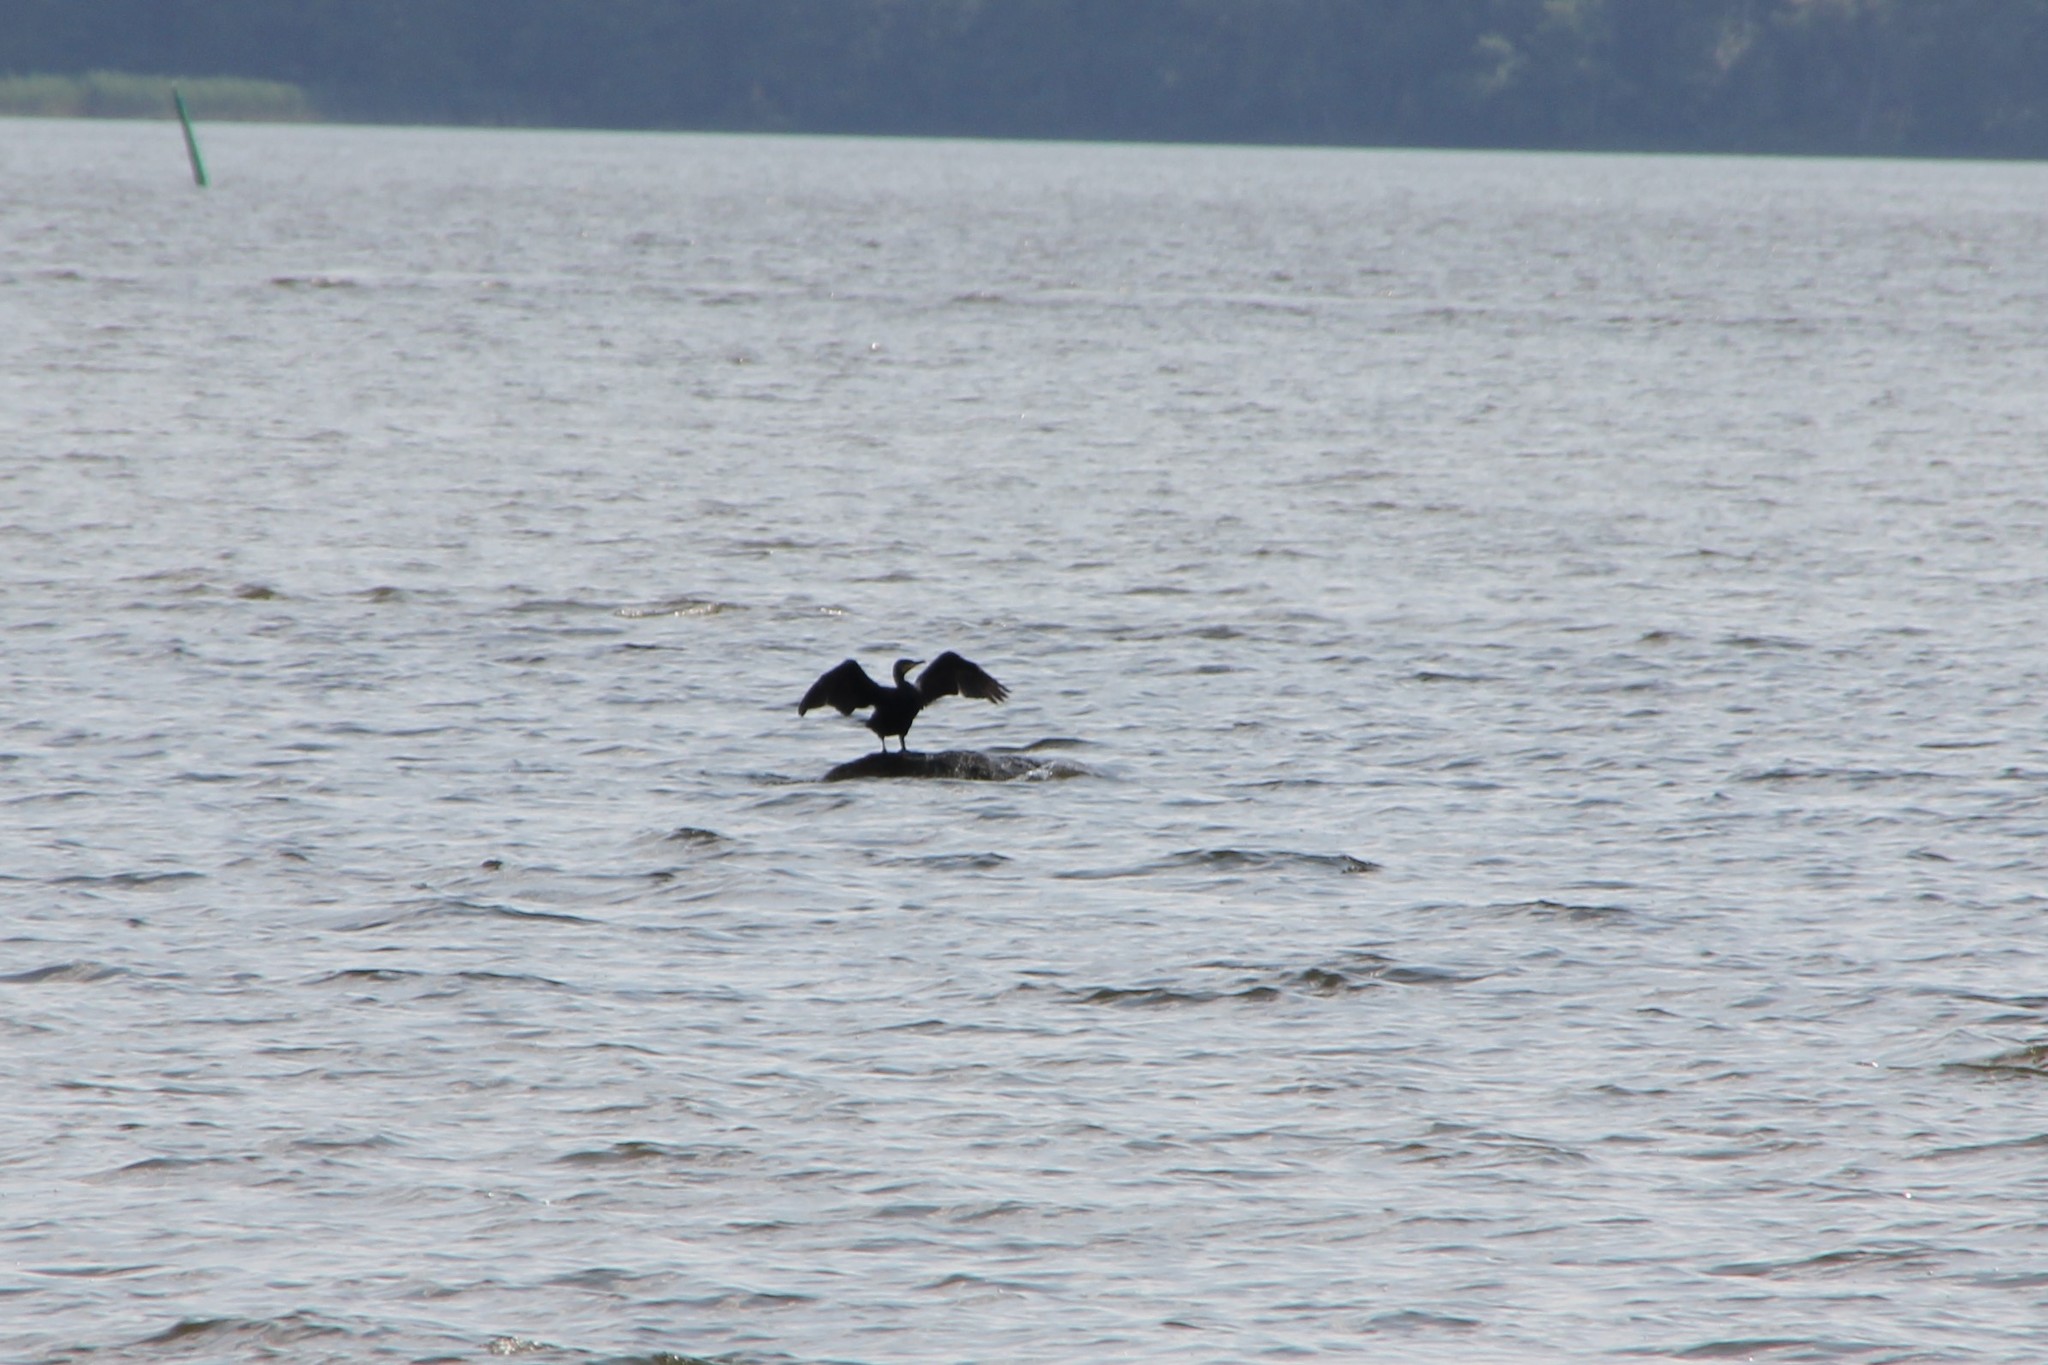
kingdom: Animalia
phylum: Chordata
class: Aves
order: Suliformes
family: Phalacrocoracidae
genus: Phalacrocorax
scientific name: Phalacrocorax carbo
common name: Great cormorant
